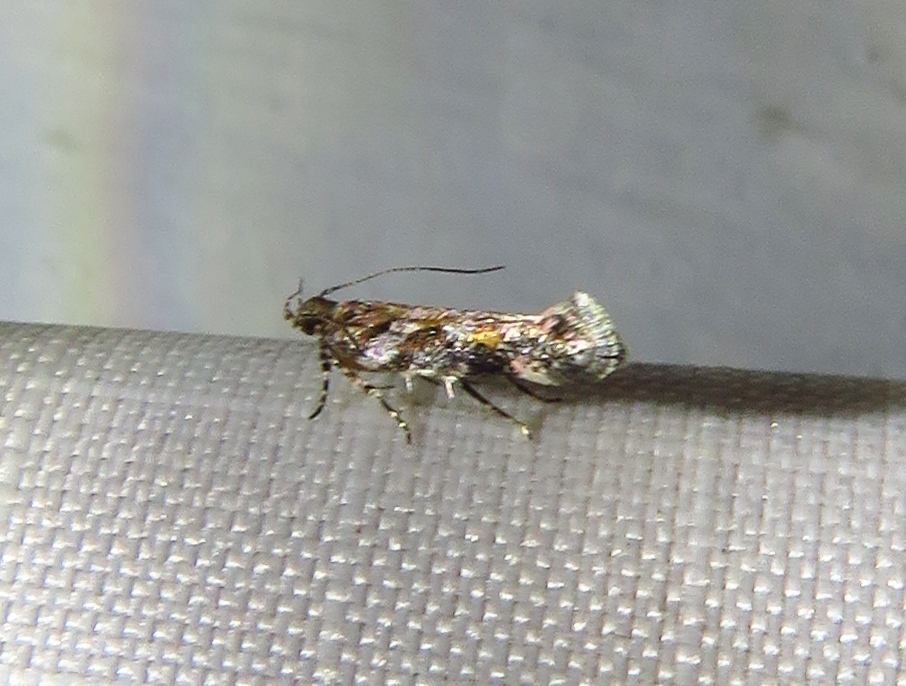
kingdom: Animalia
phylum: Arthropoda
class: Insecta
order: Lepidoptera
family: Gelechiidae
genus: Aristotelia
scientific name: Aristotelia roseosuffusella
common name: Pink-washed aristotelia moth
